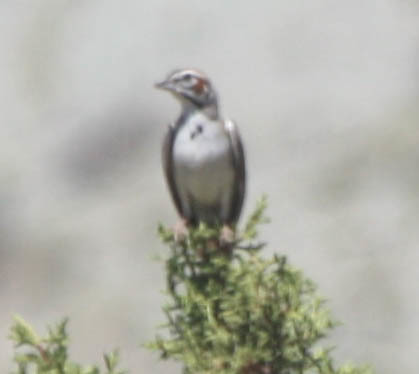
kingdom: Animalia
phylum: Chordata
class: Aves
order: Passeriformes
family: Passerellidae
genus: Chondestes
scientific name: Chondestes grammacus
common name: Lark sparrow
